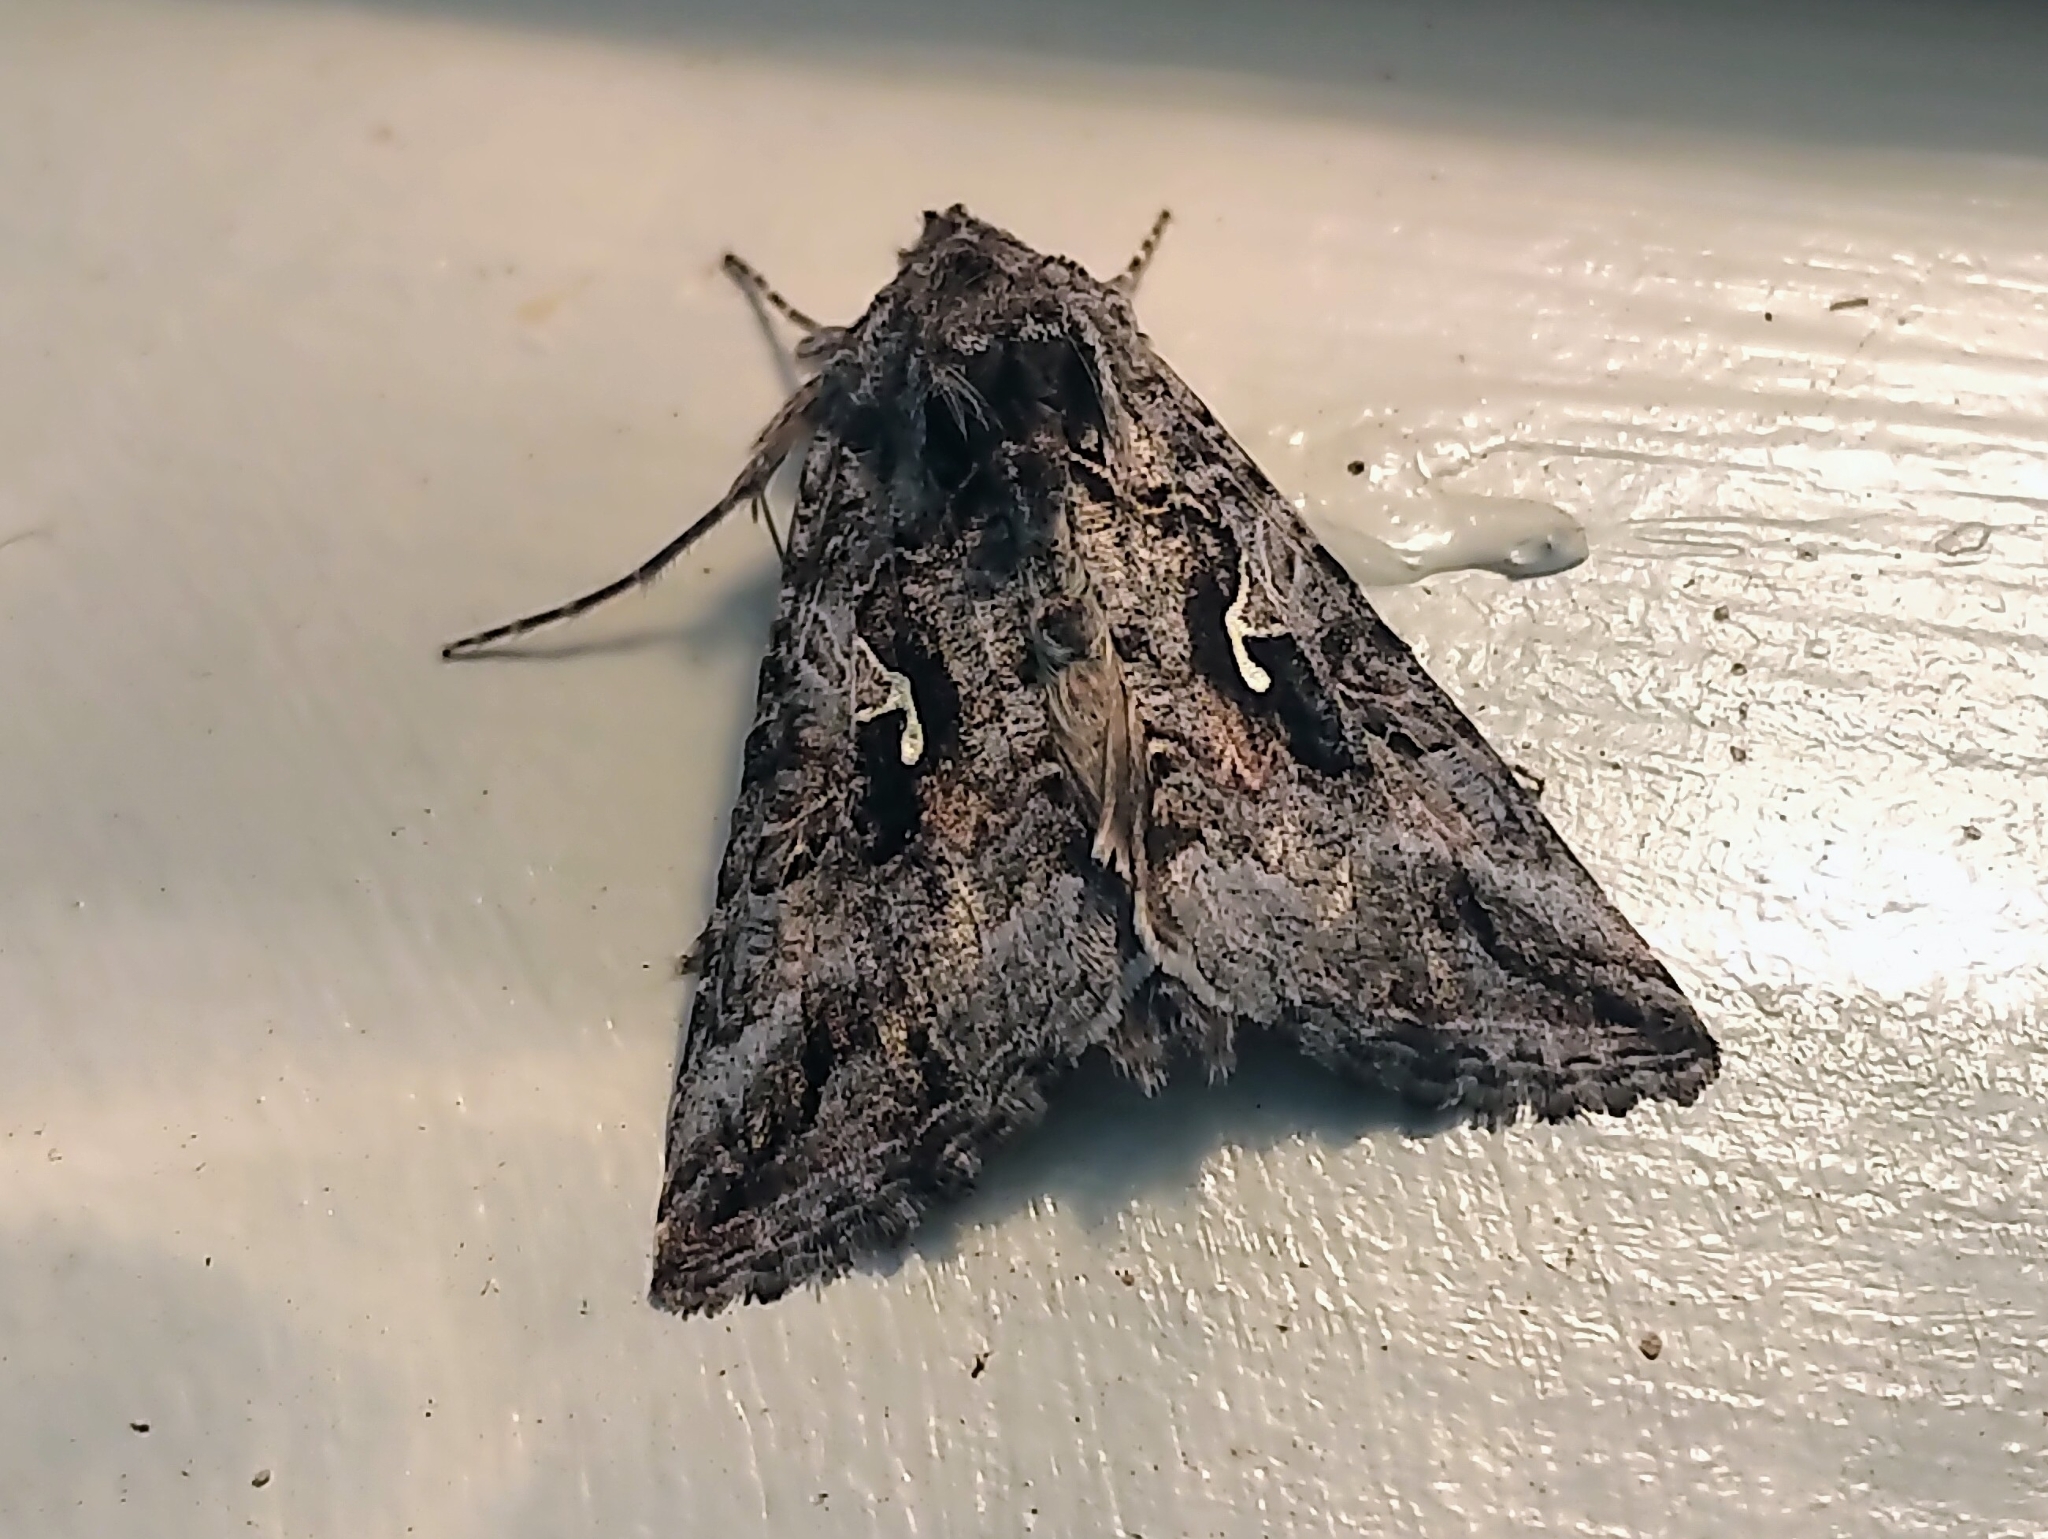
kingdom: Animalia
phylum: Arthropoda
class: Insecta
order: Lepidoptera
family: Noctuidae
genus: Autographa
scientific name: Autographa californica
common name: Alfalfa looper
